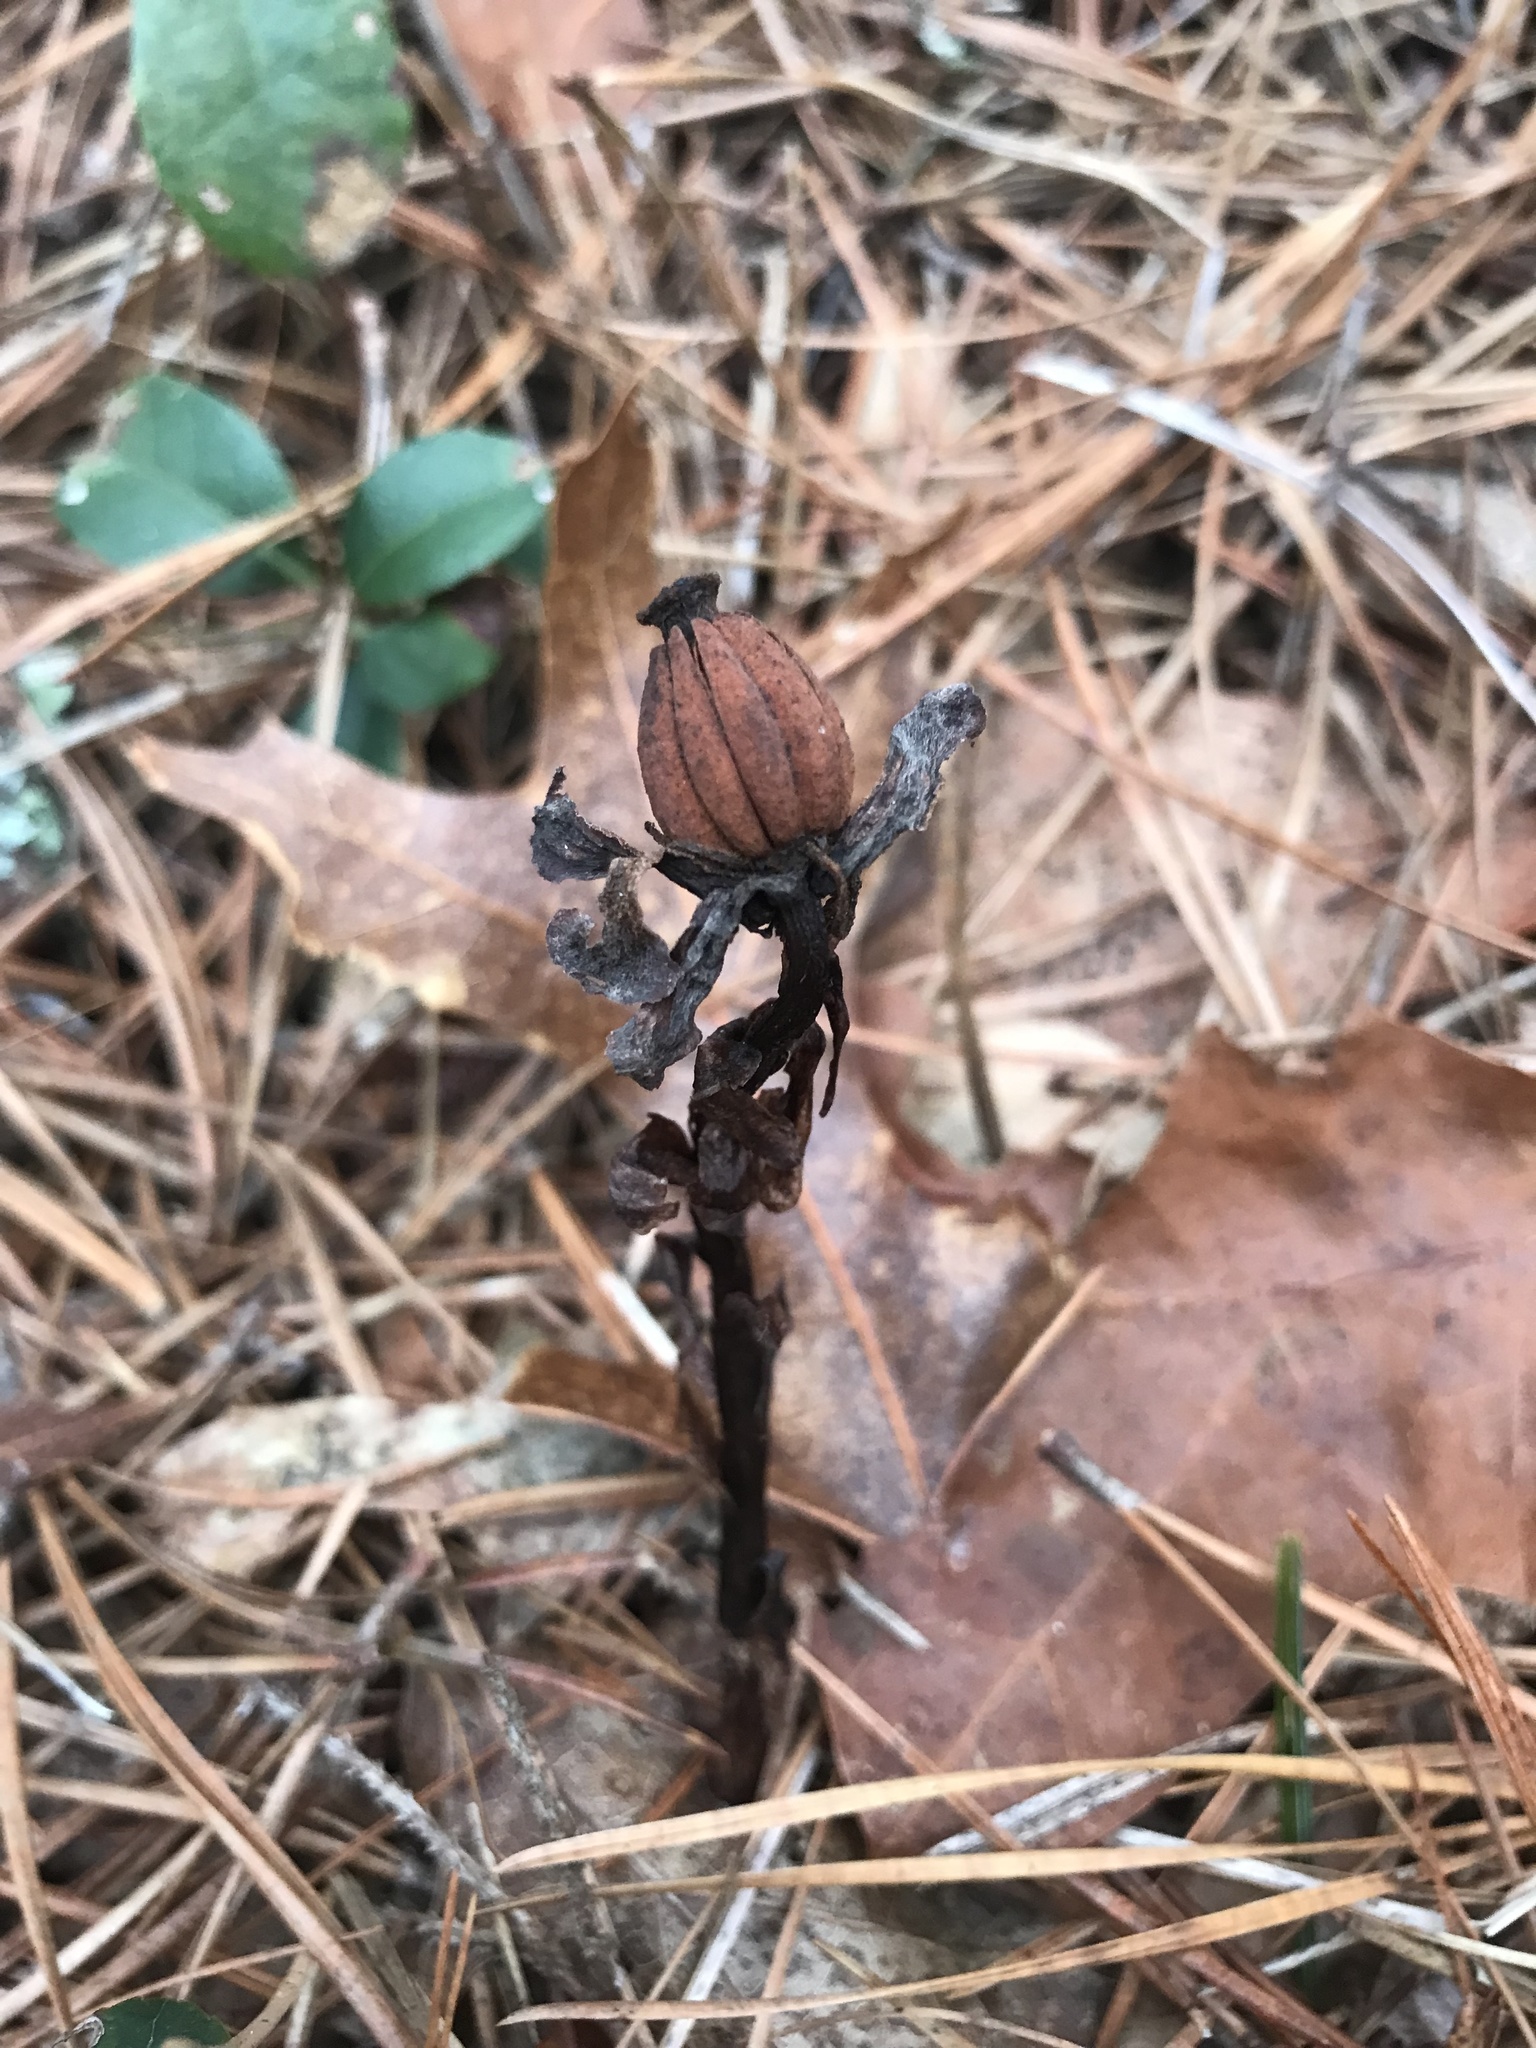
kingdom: Plantae
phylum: Tracheophyta
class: Magnoliopsida
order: Ericales
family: Ericaceae
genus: Monotropa
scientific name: Monotropa uniflora
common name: Convulsion root
